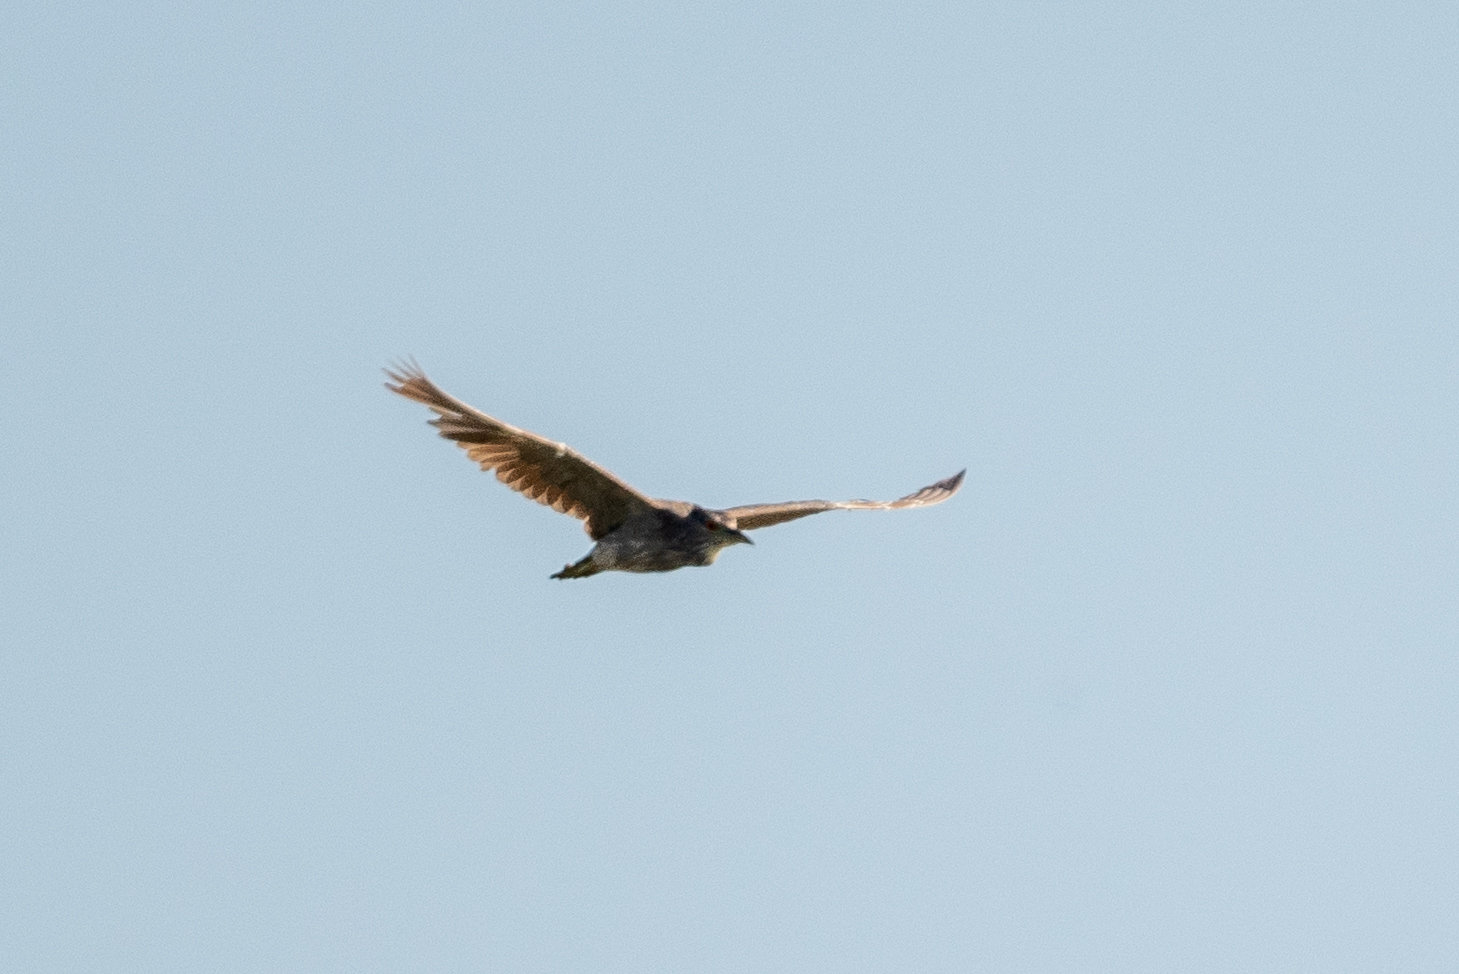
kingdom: Animalia
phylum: Chordata
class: Aves
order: Pelecaniformes
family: Ardeidae
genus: Nycticorax
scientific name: Nycticorax nycticorax
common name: Black-crowned night heron
